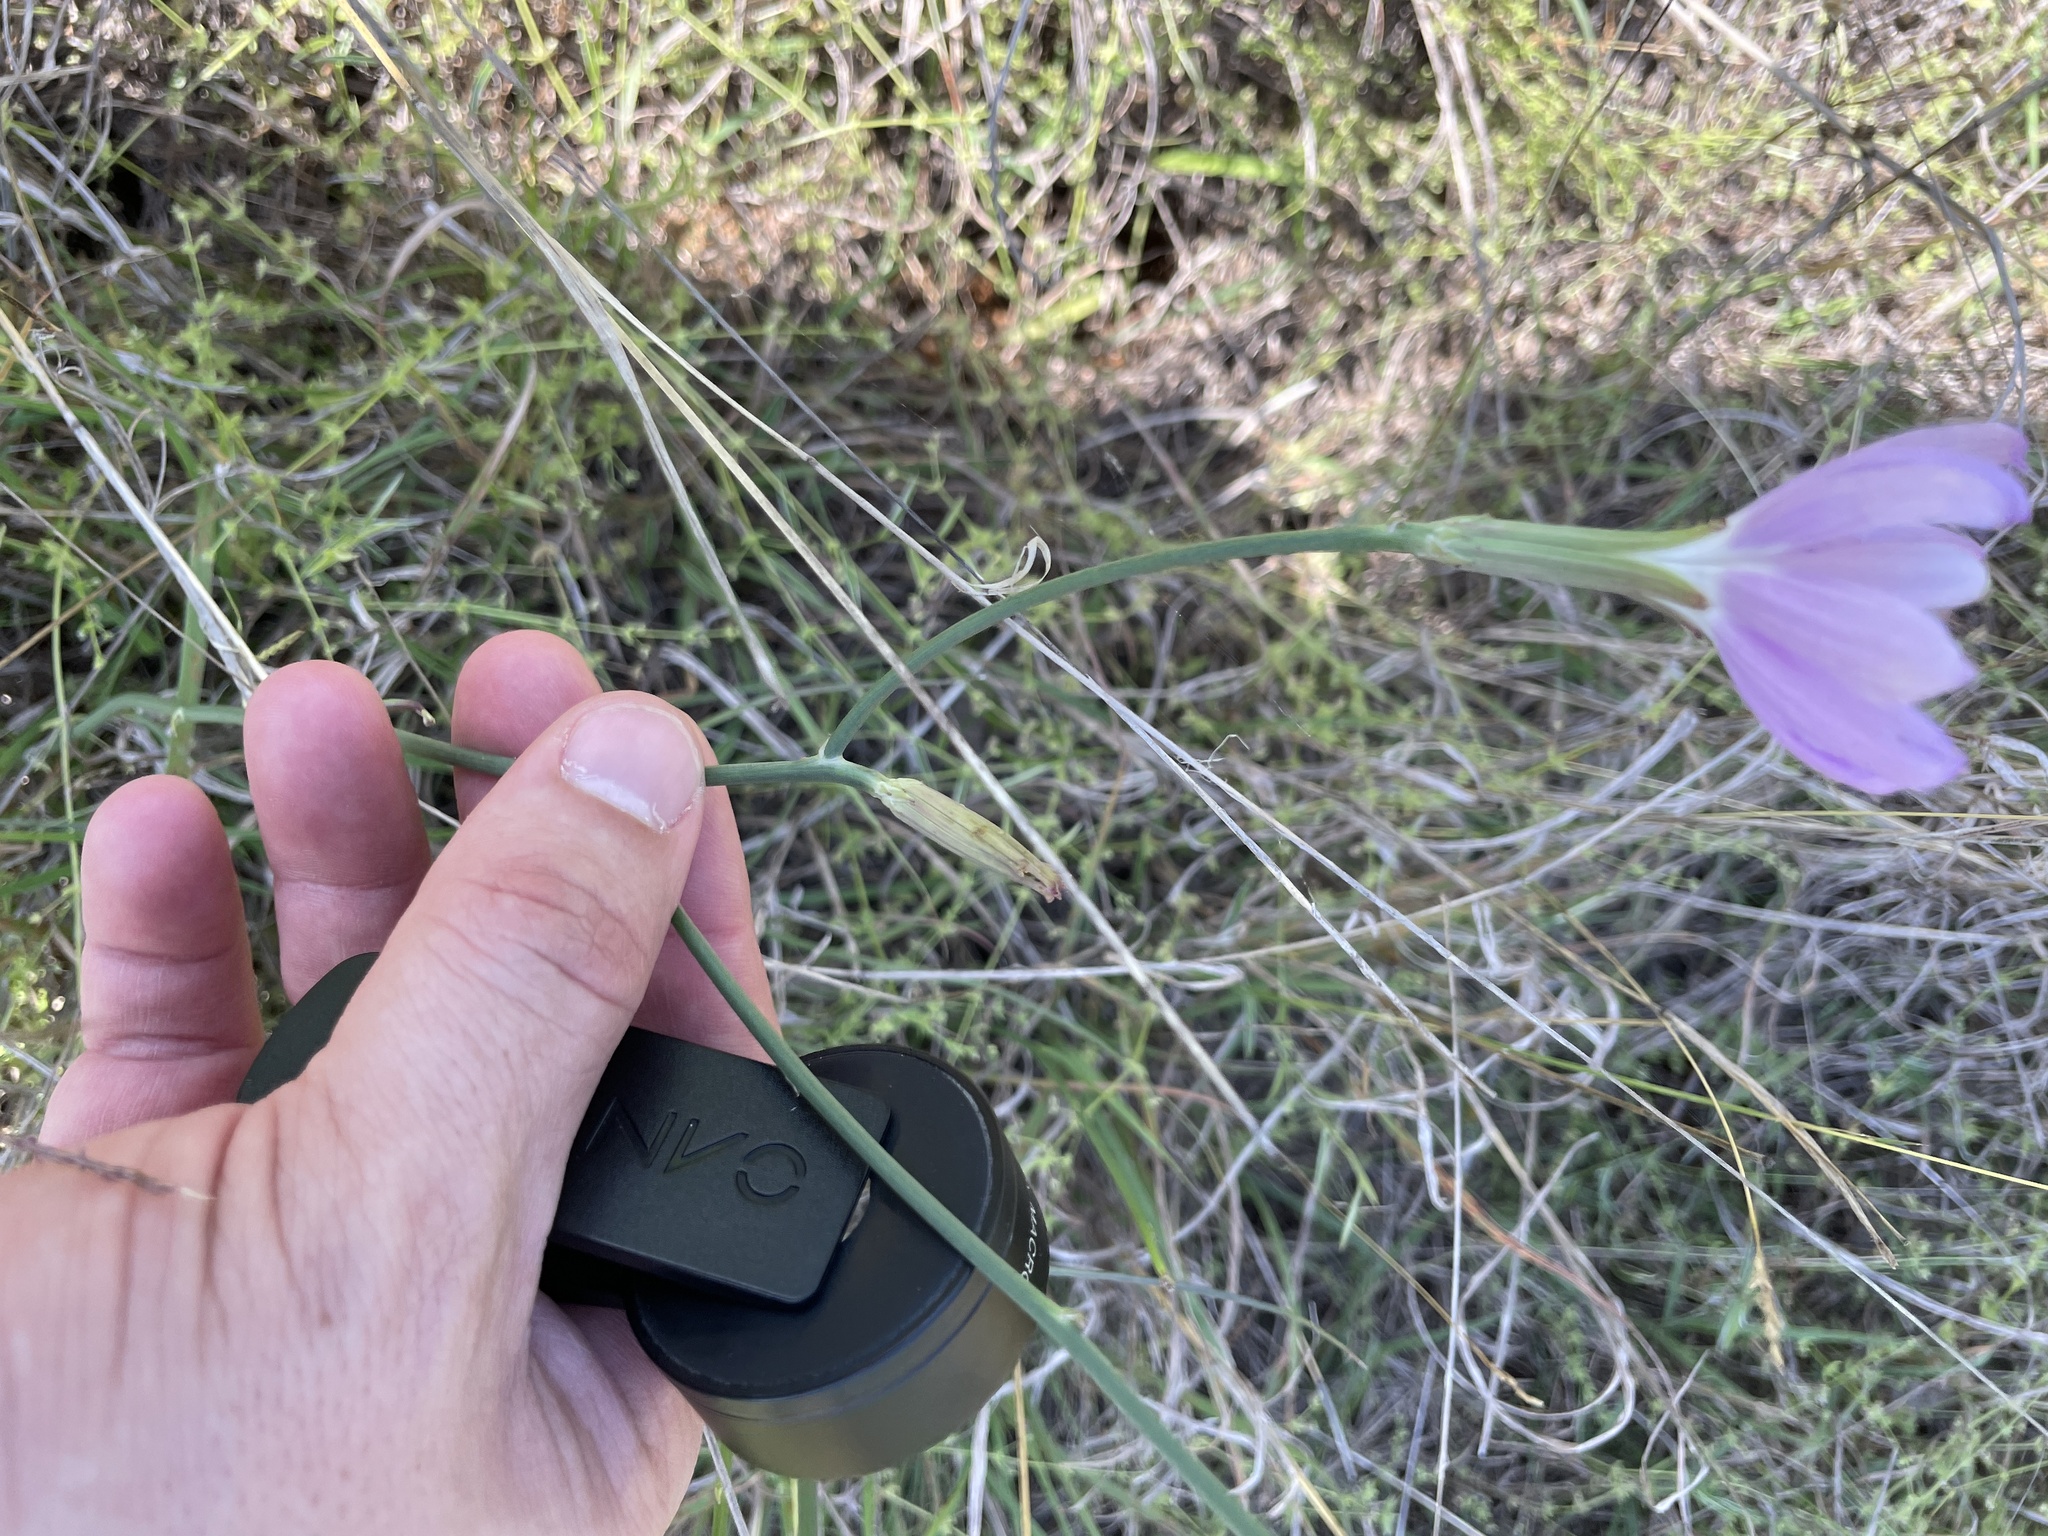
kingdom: Plantae
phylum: Tracheophyta
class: Magnoliopsida
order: Asterales
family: Asteraceae
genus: Lygodesmia
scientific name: Lygodesmia texana
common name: Texas skeleton-plant
